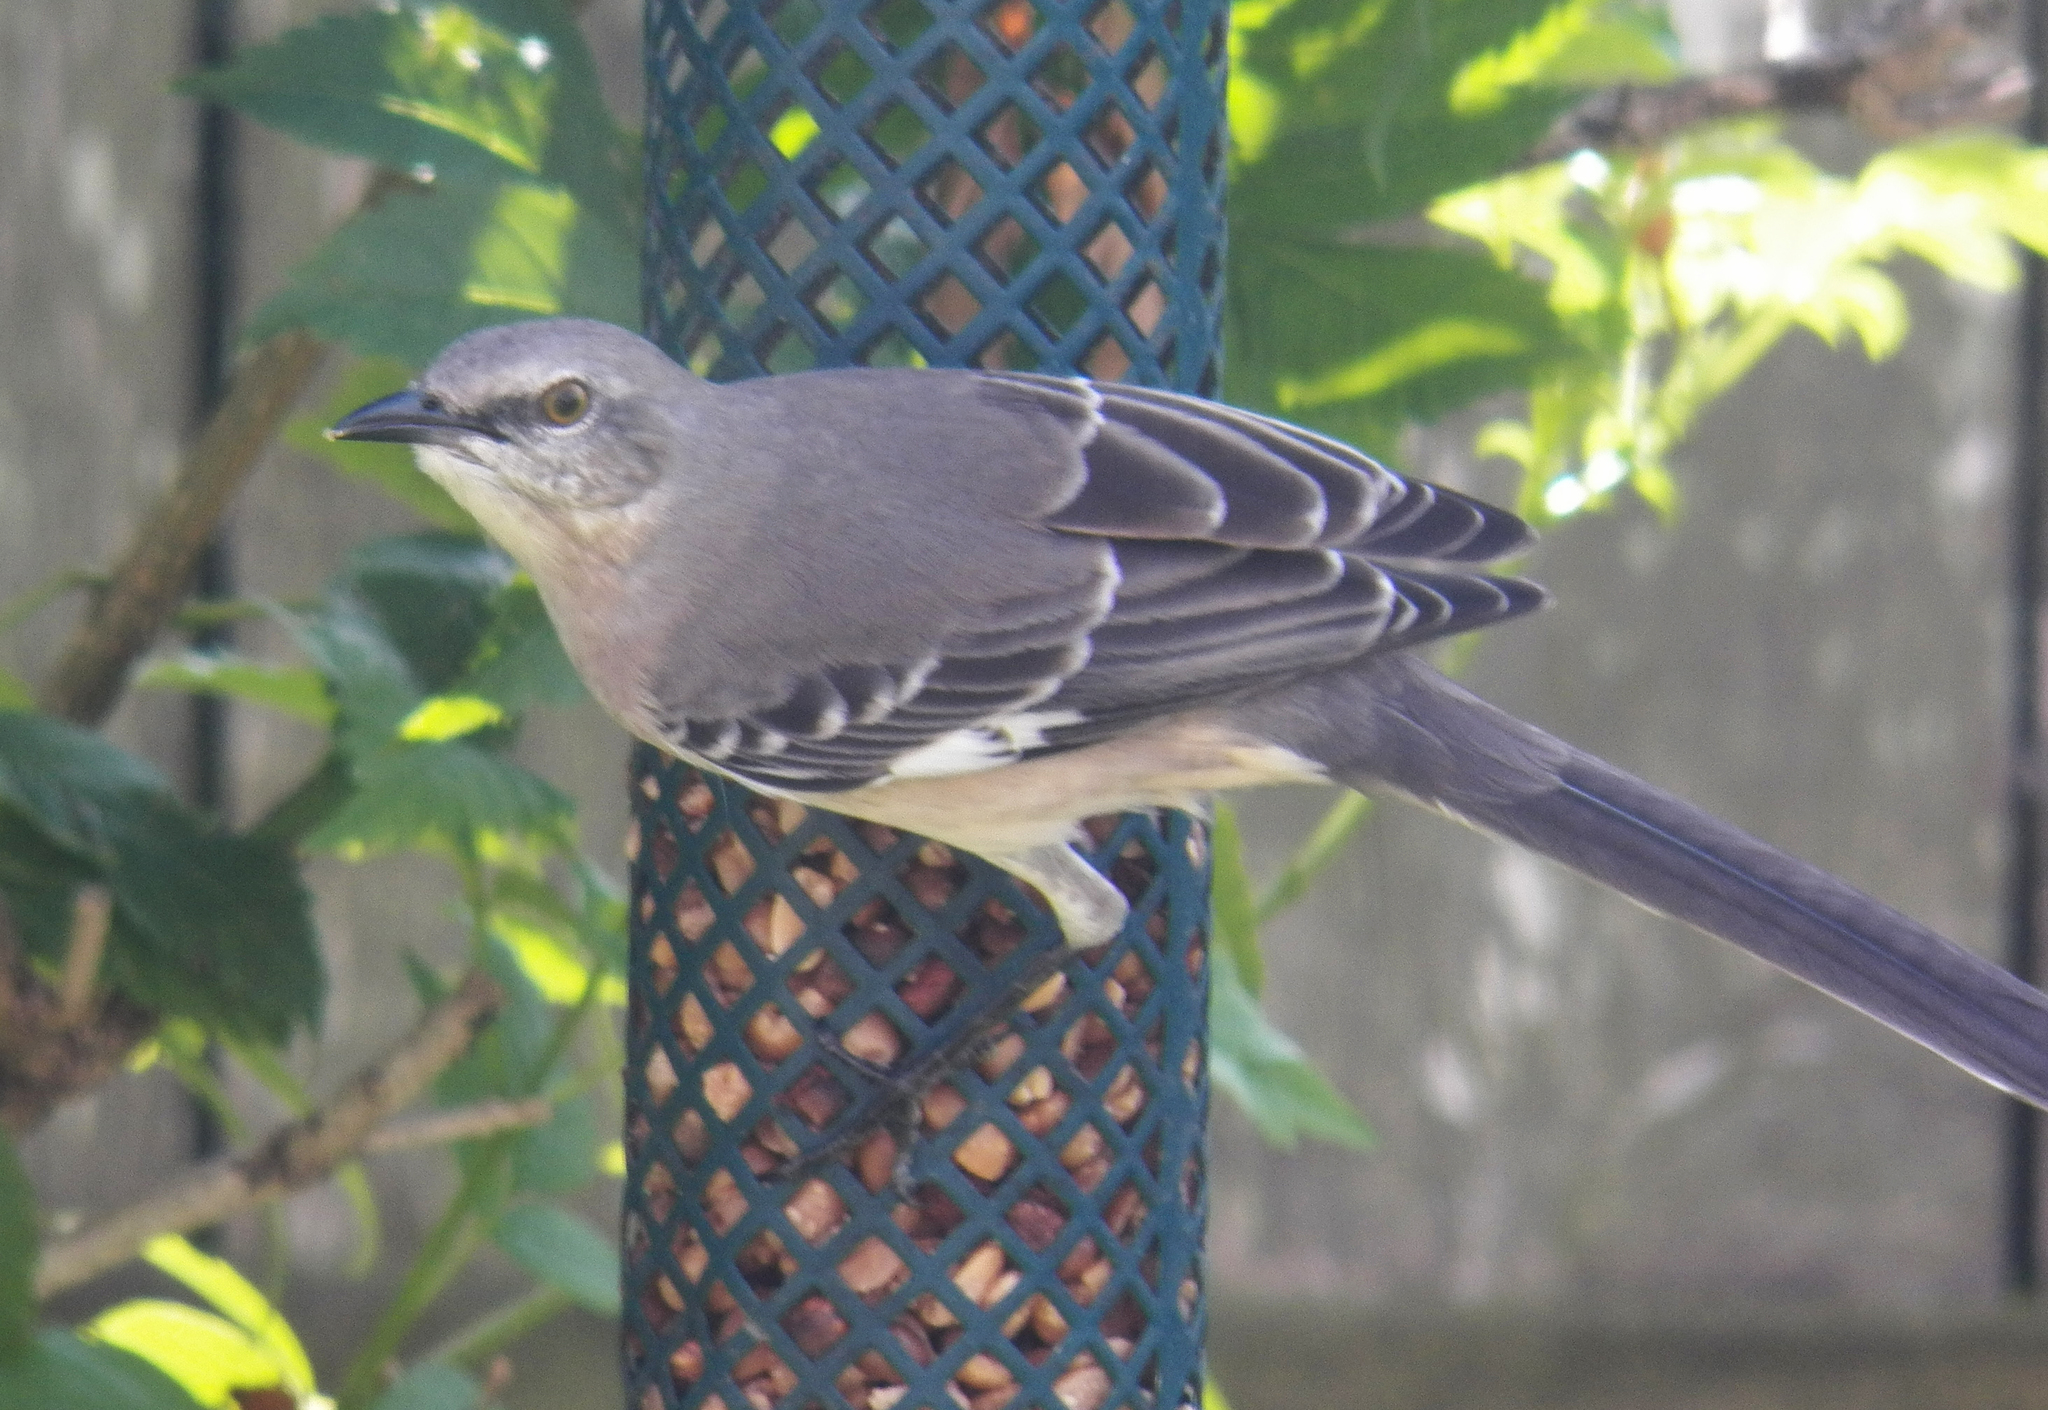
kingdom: Animalia
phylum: Chordata
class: Aves
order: Passeriformes
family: Mimidae
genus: Mimus
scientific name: Mimus polyglottos
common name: Northern mockingbird
